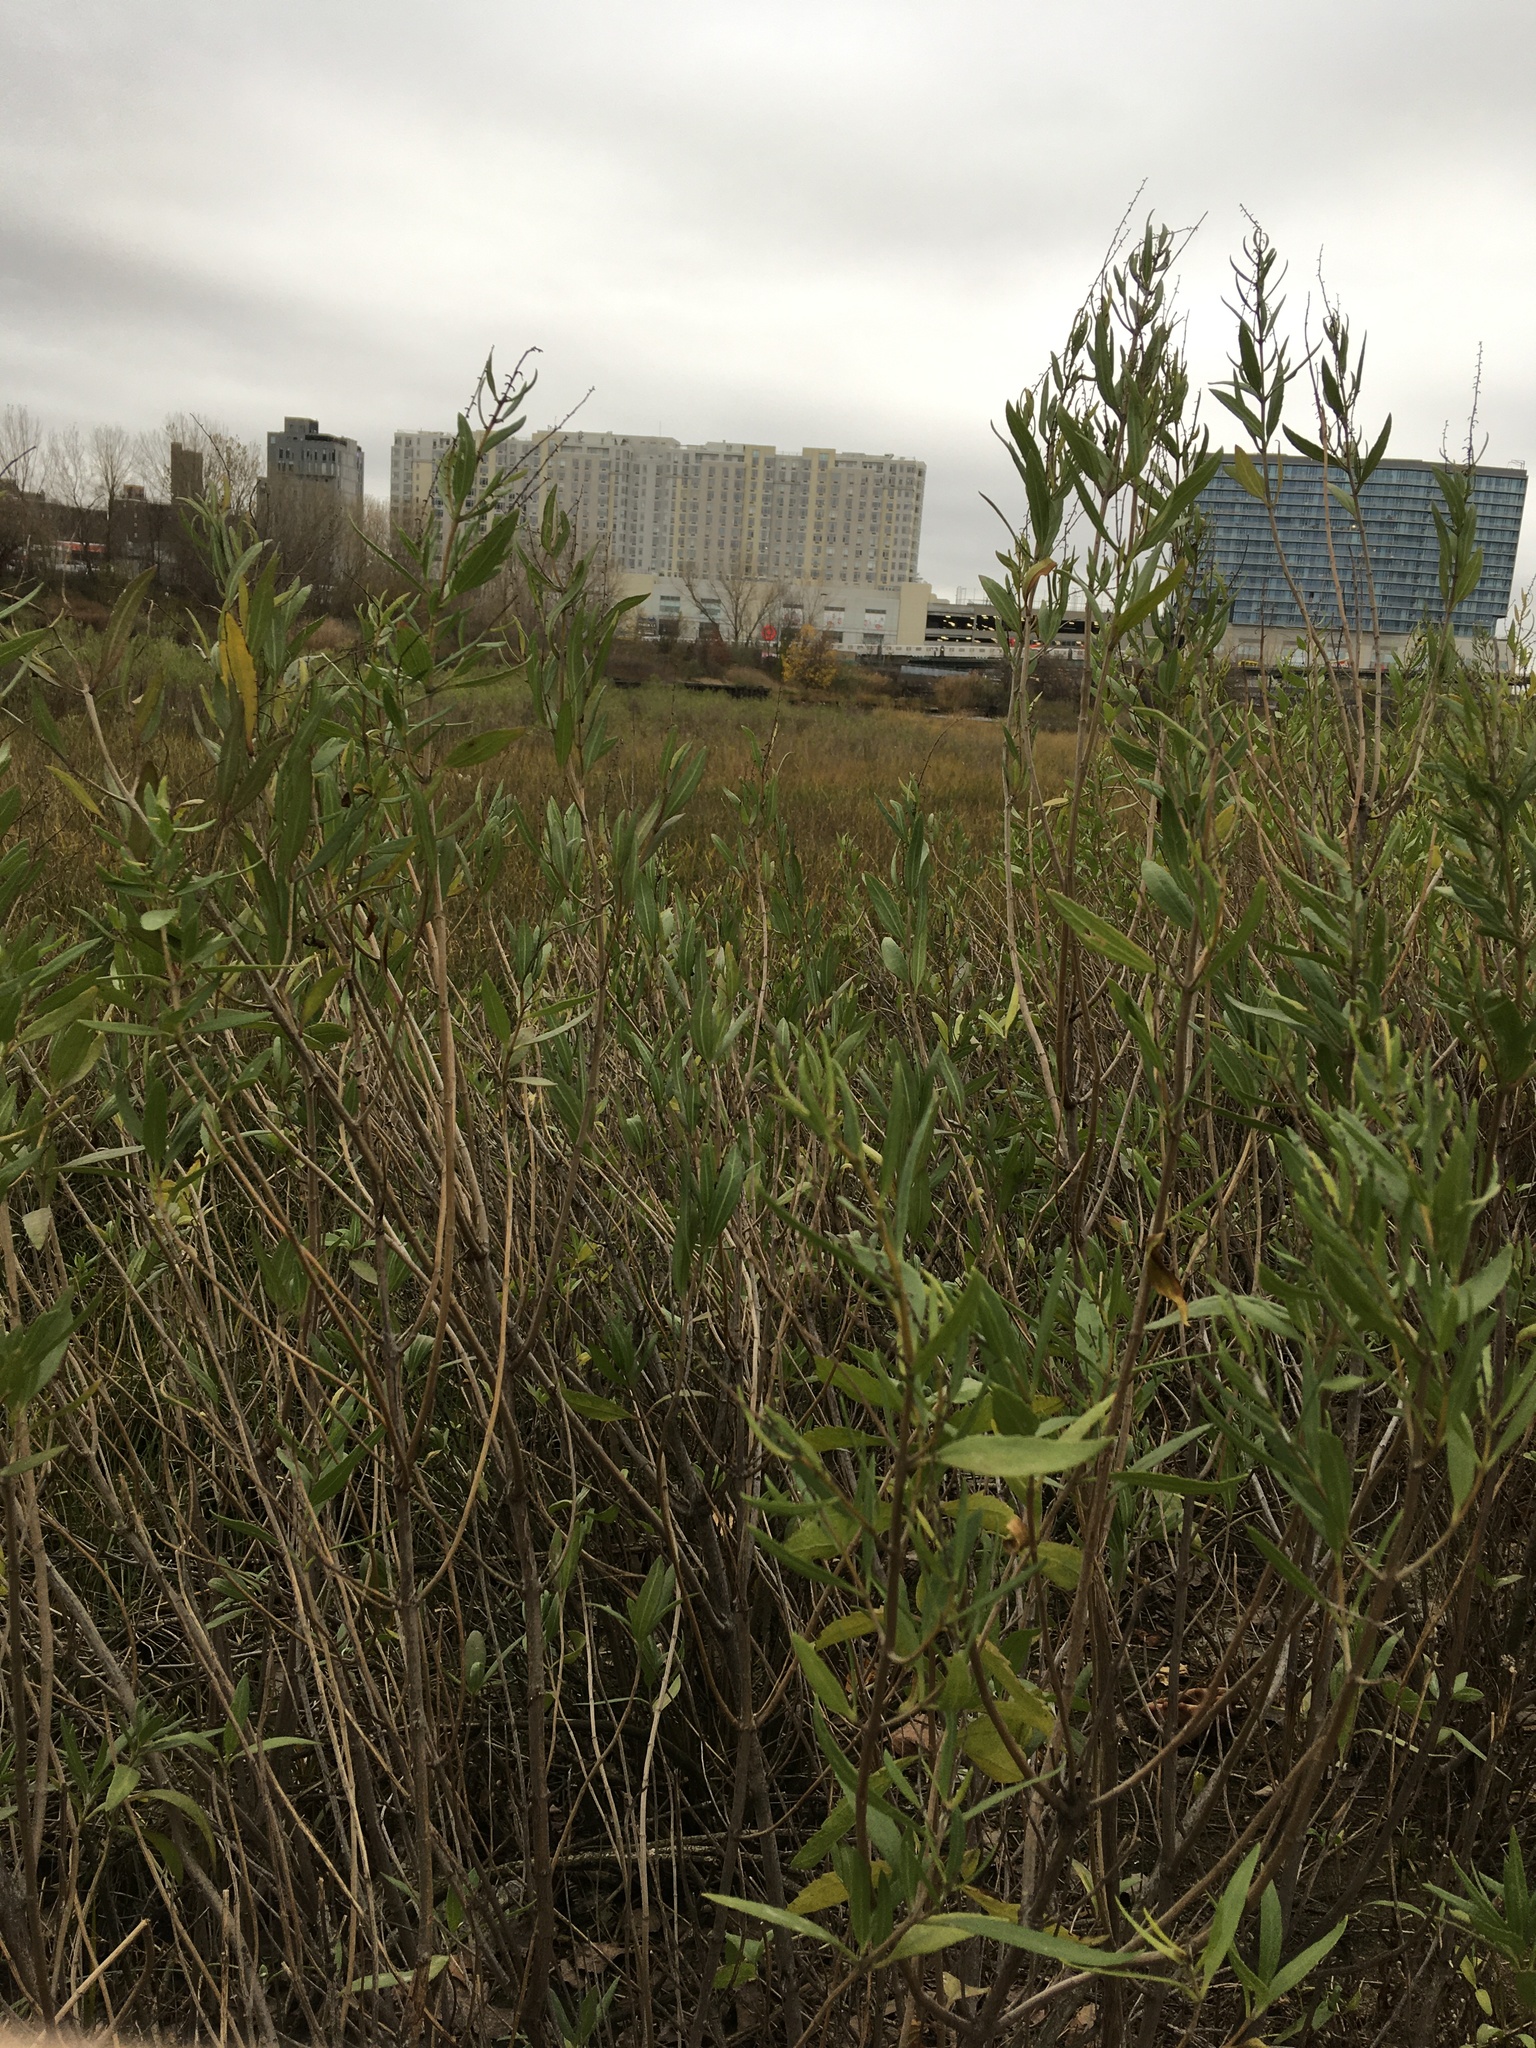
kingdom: Plantae
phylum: Tracheophyta
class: Magnoliopsida
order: Asterales
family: Asteraceae
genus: Iva
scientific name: Iva frutescens
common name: Big-leaved marsh-elder
